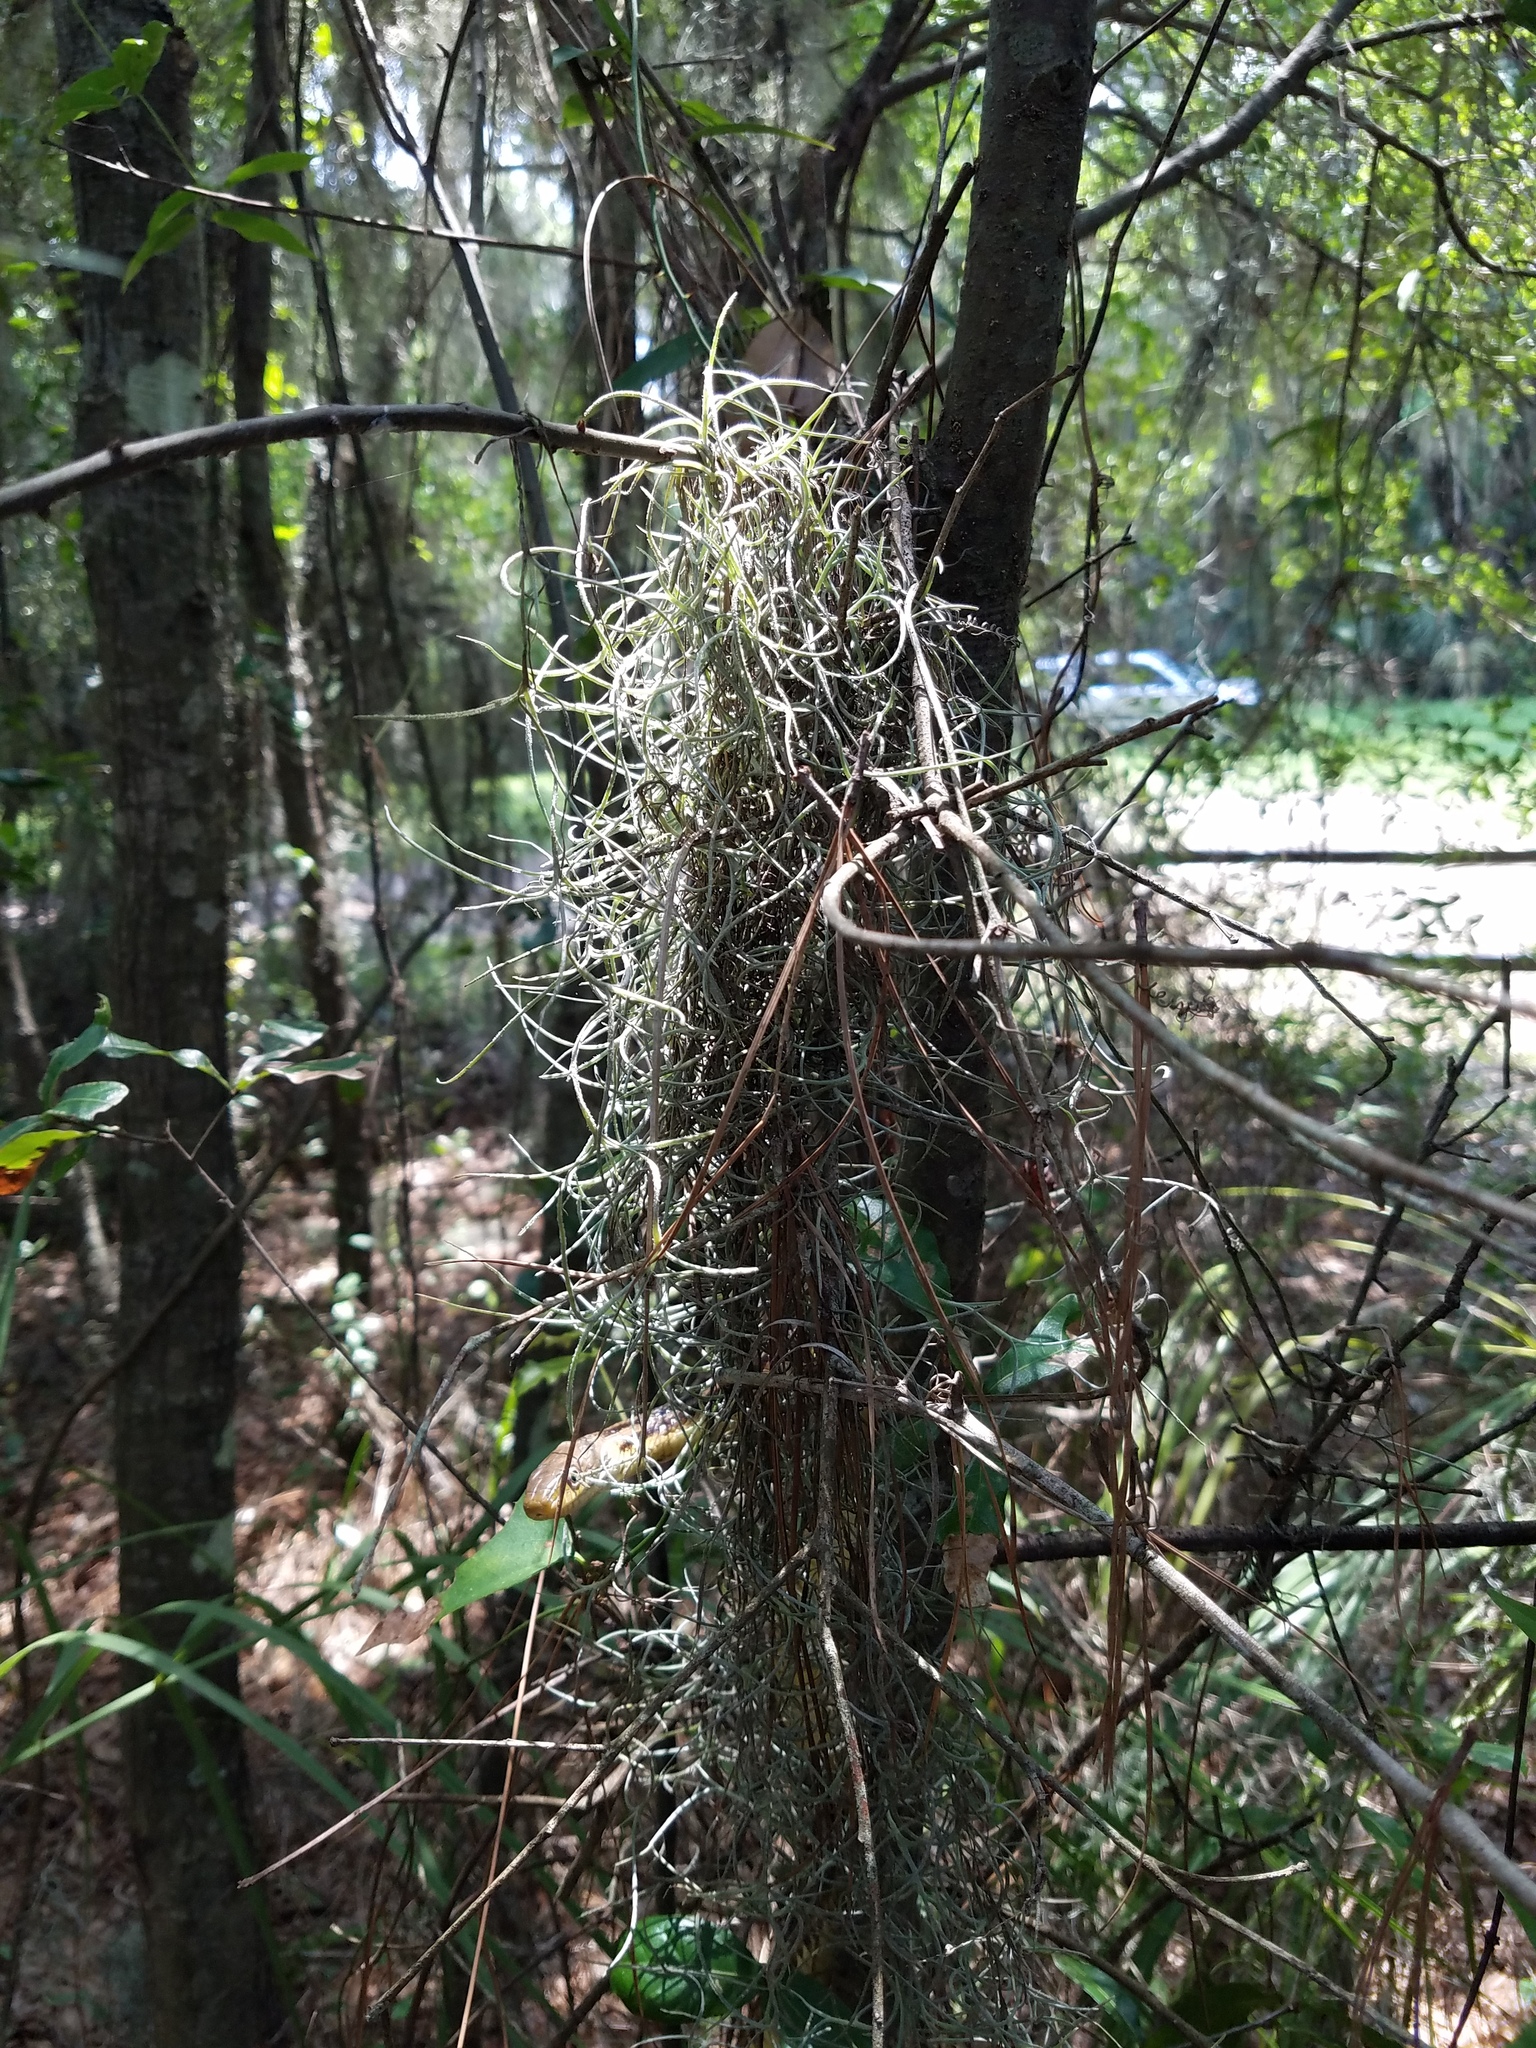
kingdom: Plantae
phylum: Tracheophyta
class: Liliopsida
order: Poales
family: Bromeliaceae
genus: Tillandsia
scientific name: Tillandsia usneoides
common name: Spanish moss
